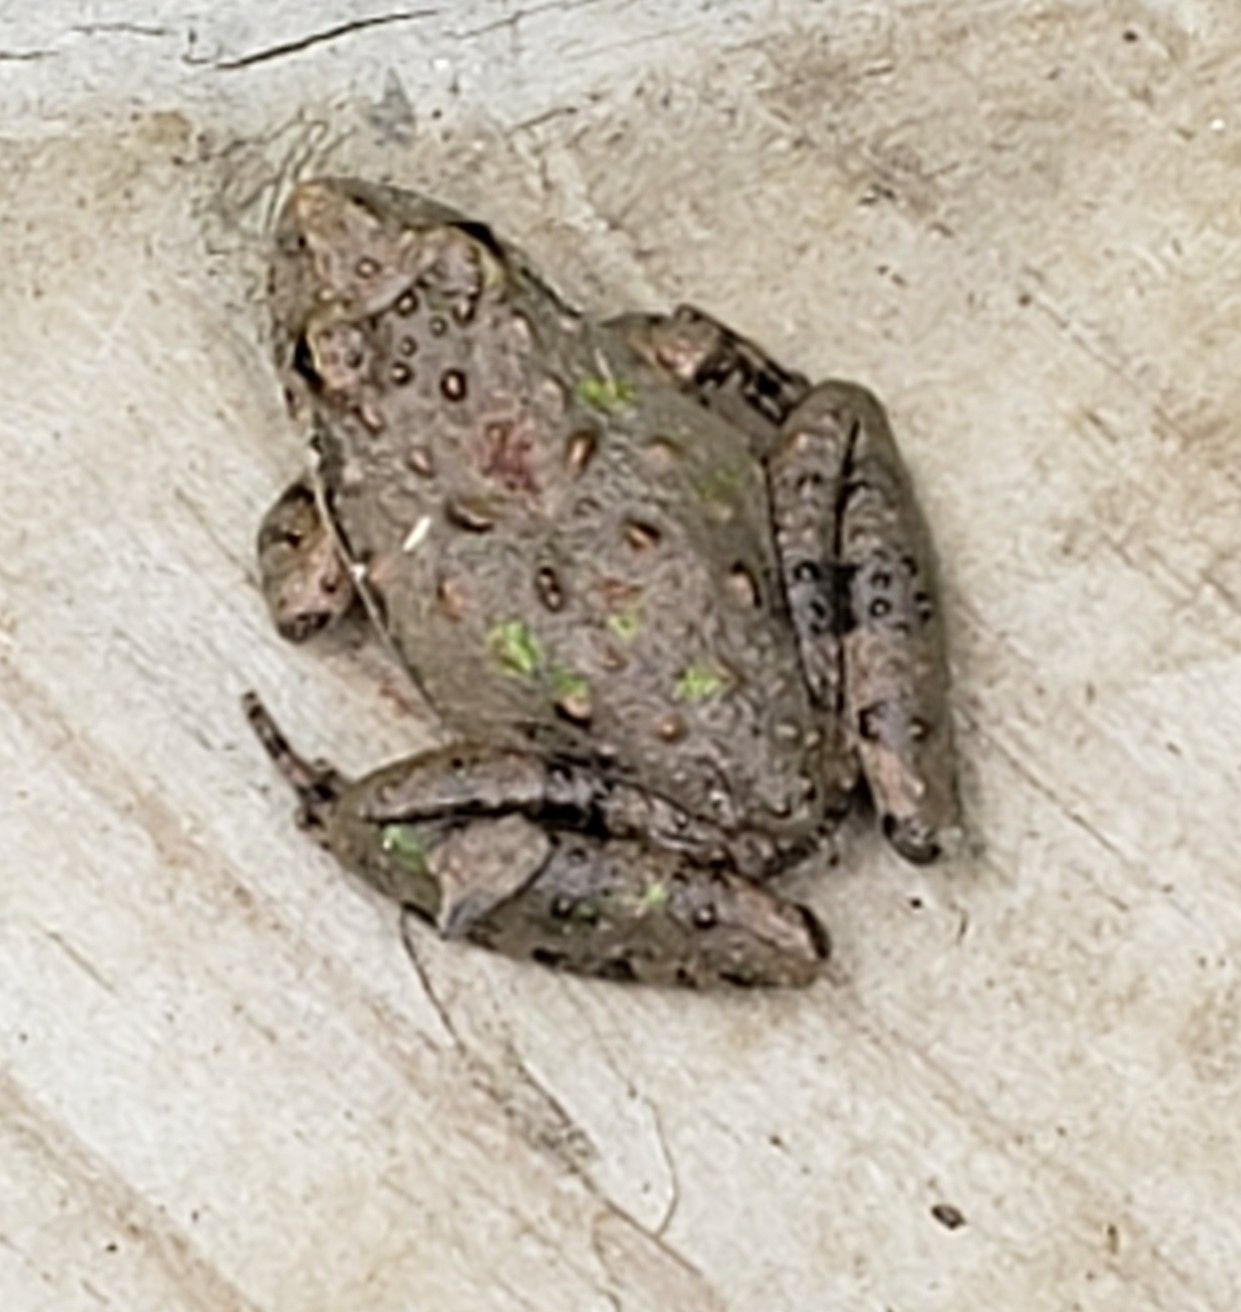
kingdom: Animalia
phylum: Chordata
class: Amphibia
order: Anura
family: Hylidae
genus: Acris
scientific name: Acris blanchardi
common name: Blanchard's cricket frog
